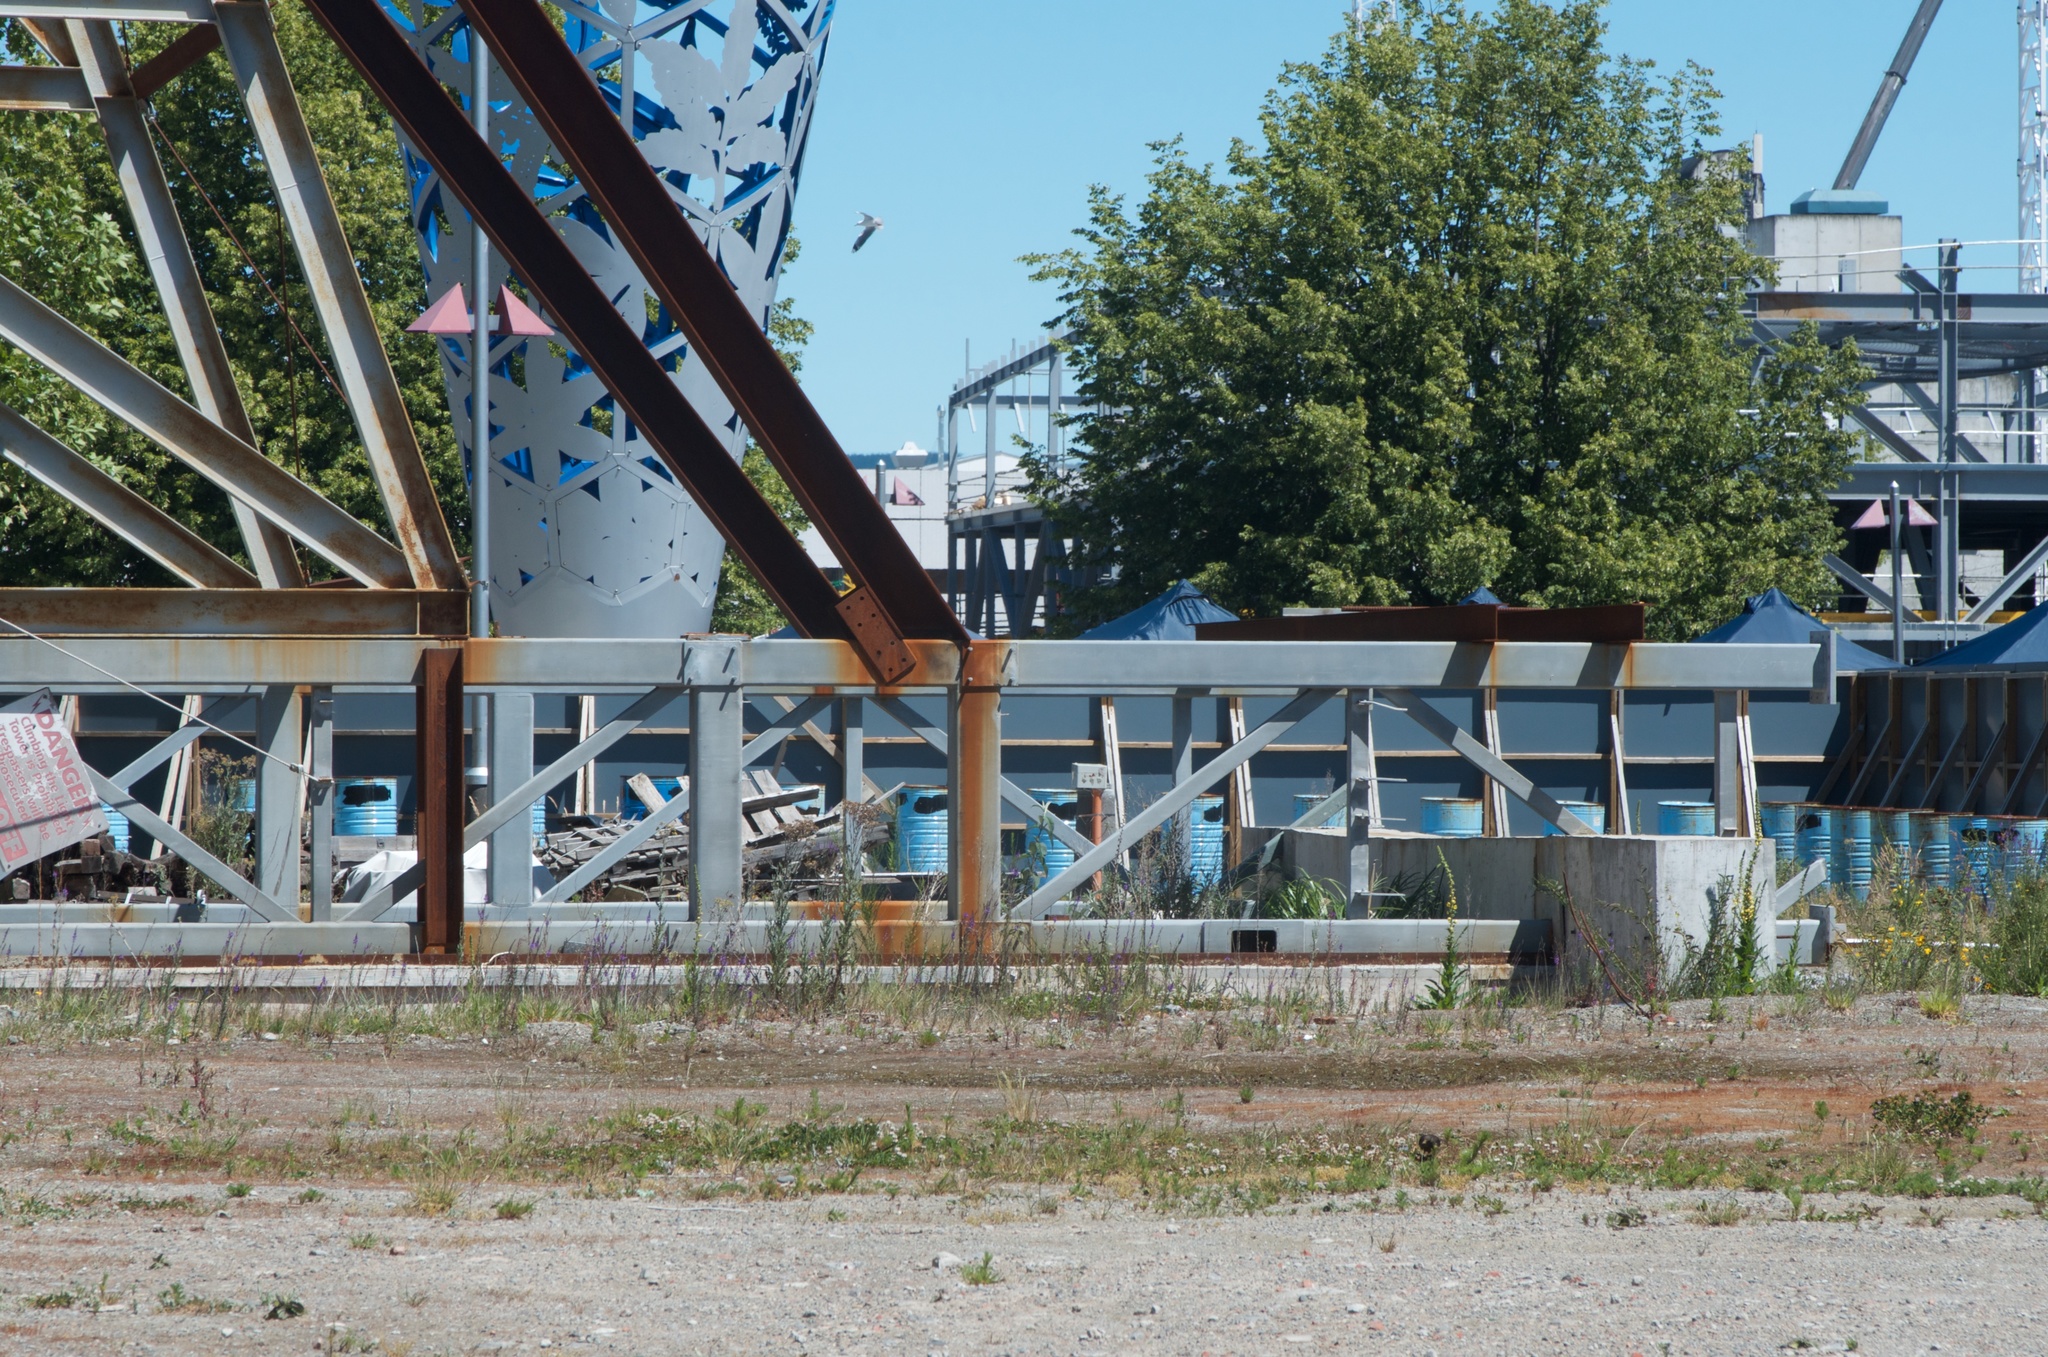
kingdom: Animalia
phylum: Chordata
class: Aves
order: Passeriformes
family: Turdidae
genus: Turdus
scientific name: Turdus merula
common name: Common blackbird
